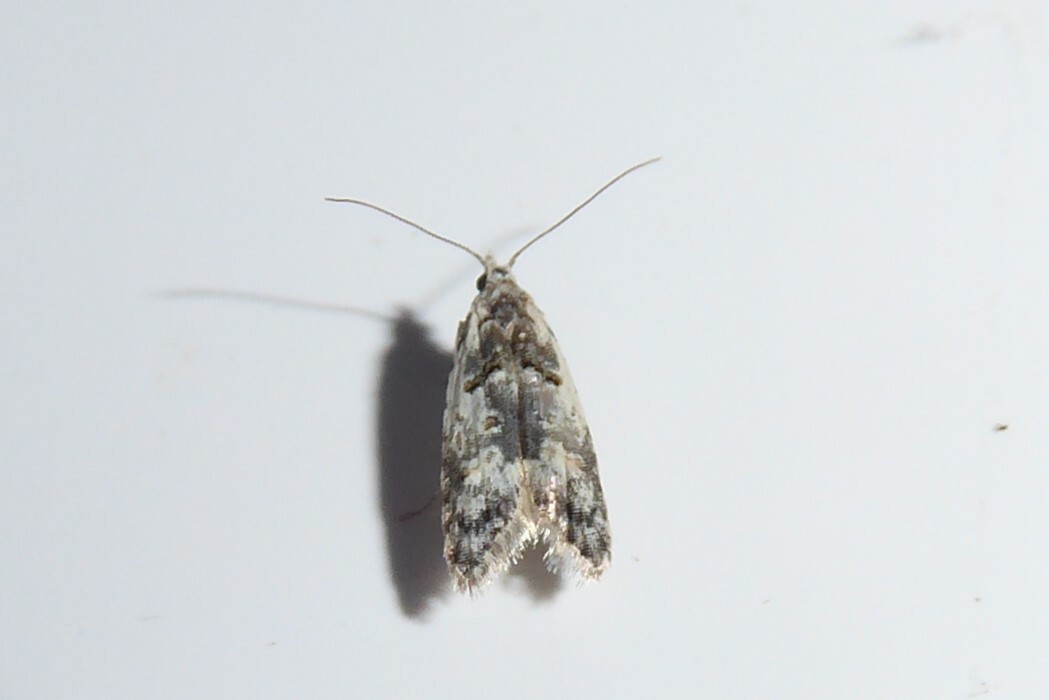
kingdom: Animalia
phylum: Arthropoda
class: Insecta
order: Lepidoptera
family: Carposinidae
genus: Carposina
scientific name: Carposina
